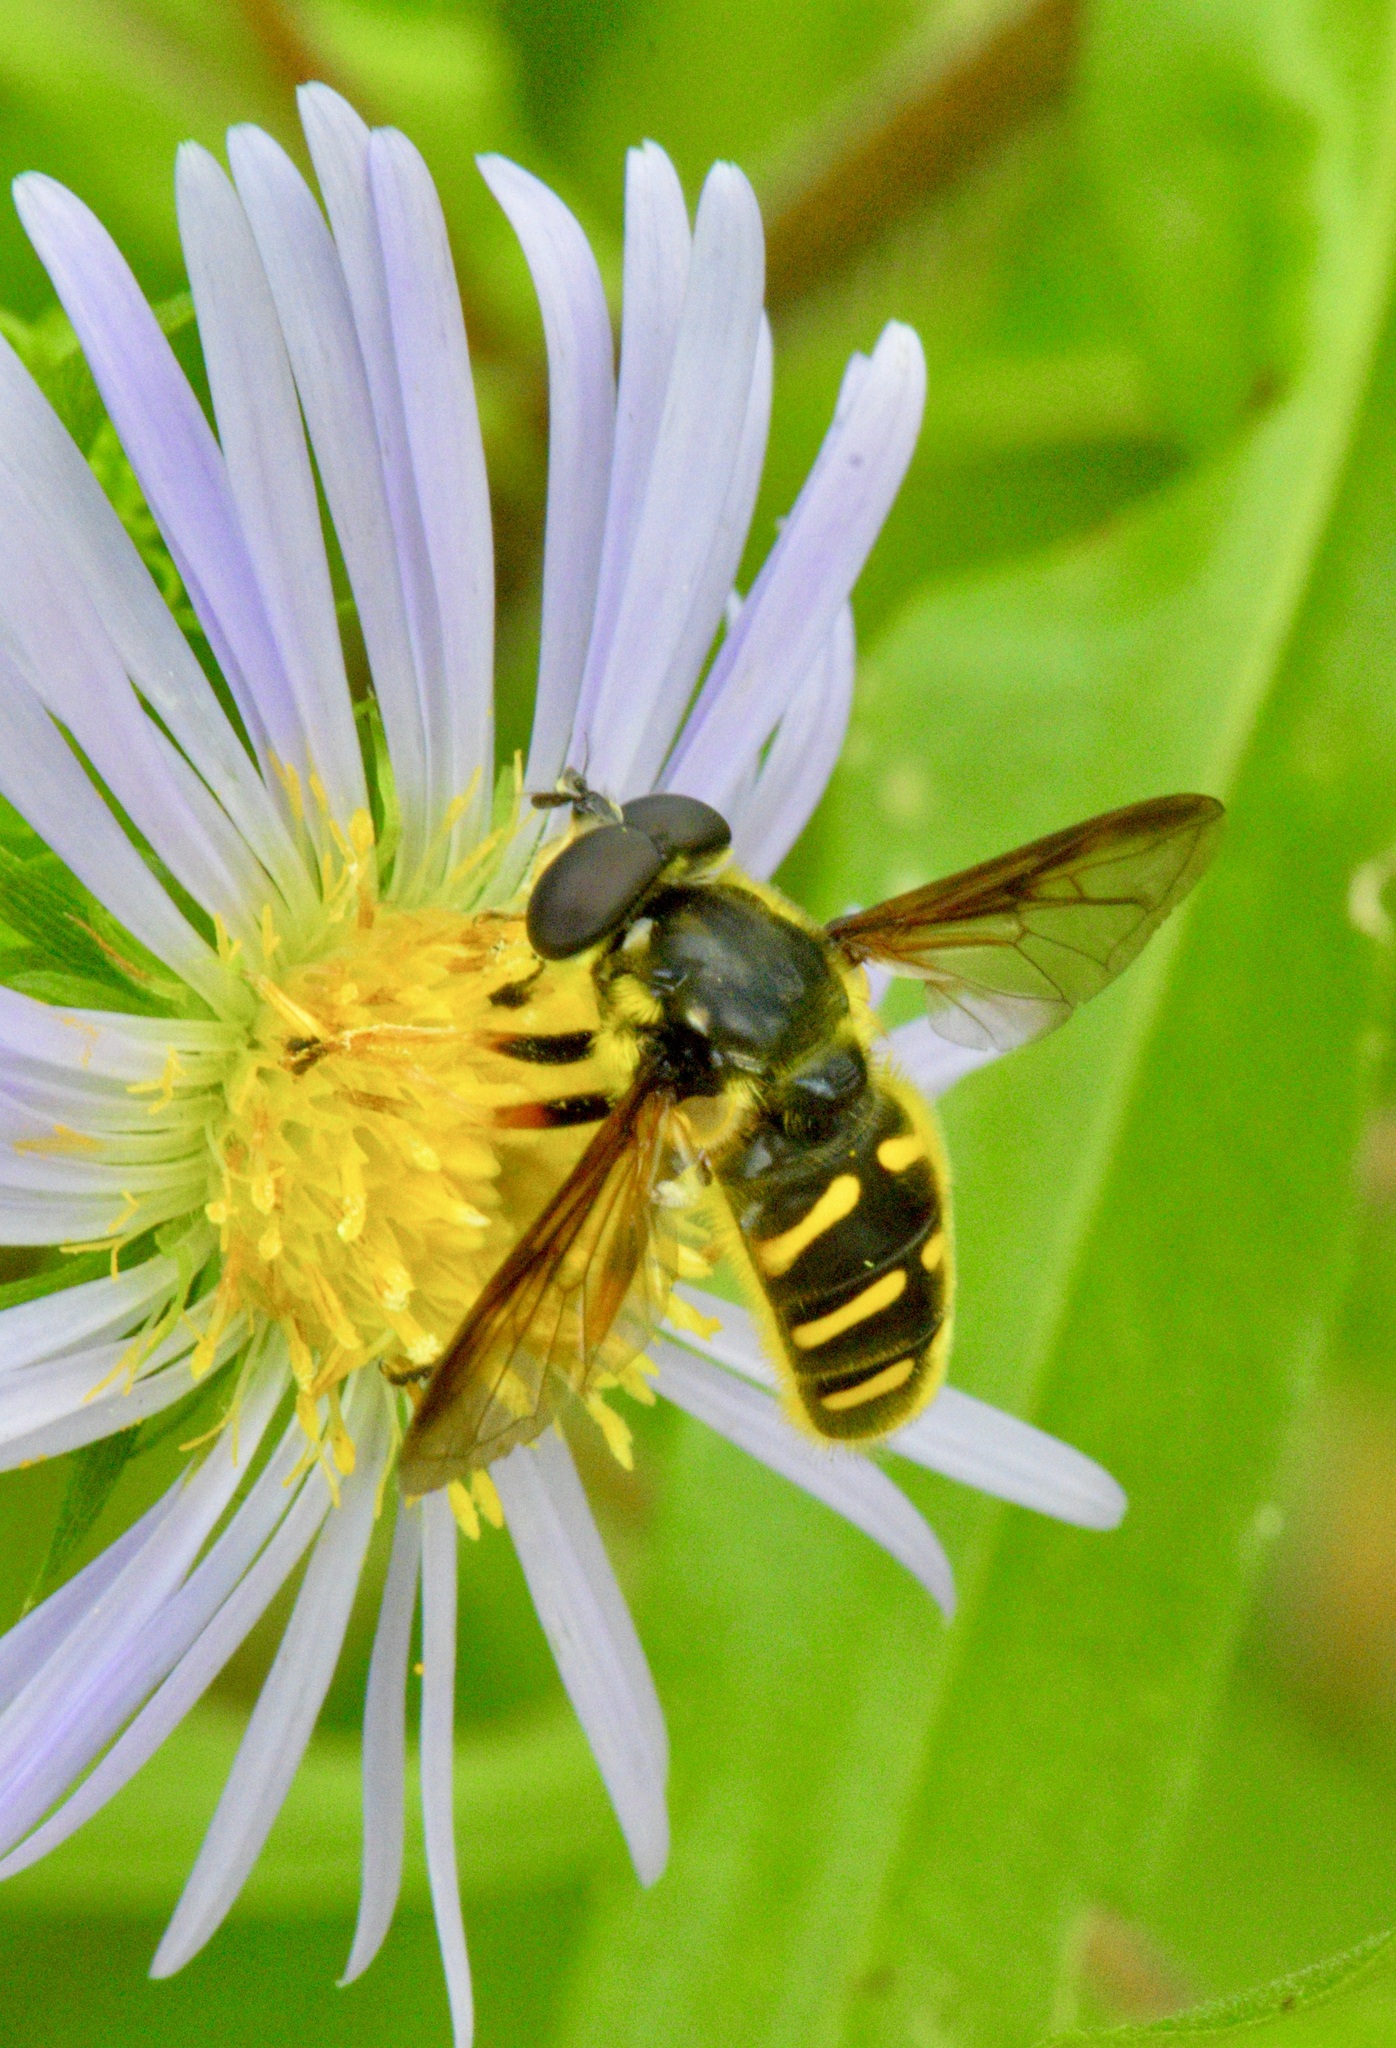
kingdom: Animalia
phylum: Arthropoda
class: Insecta
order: Diptera
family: Syrphidae
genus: Sericomyia
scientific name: Sericomyia chrysotoxoides
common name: Oblique-banded pond fly
